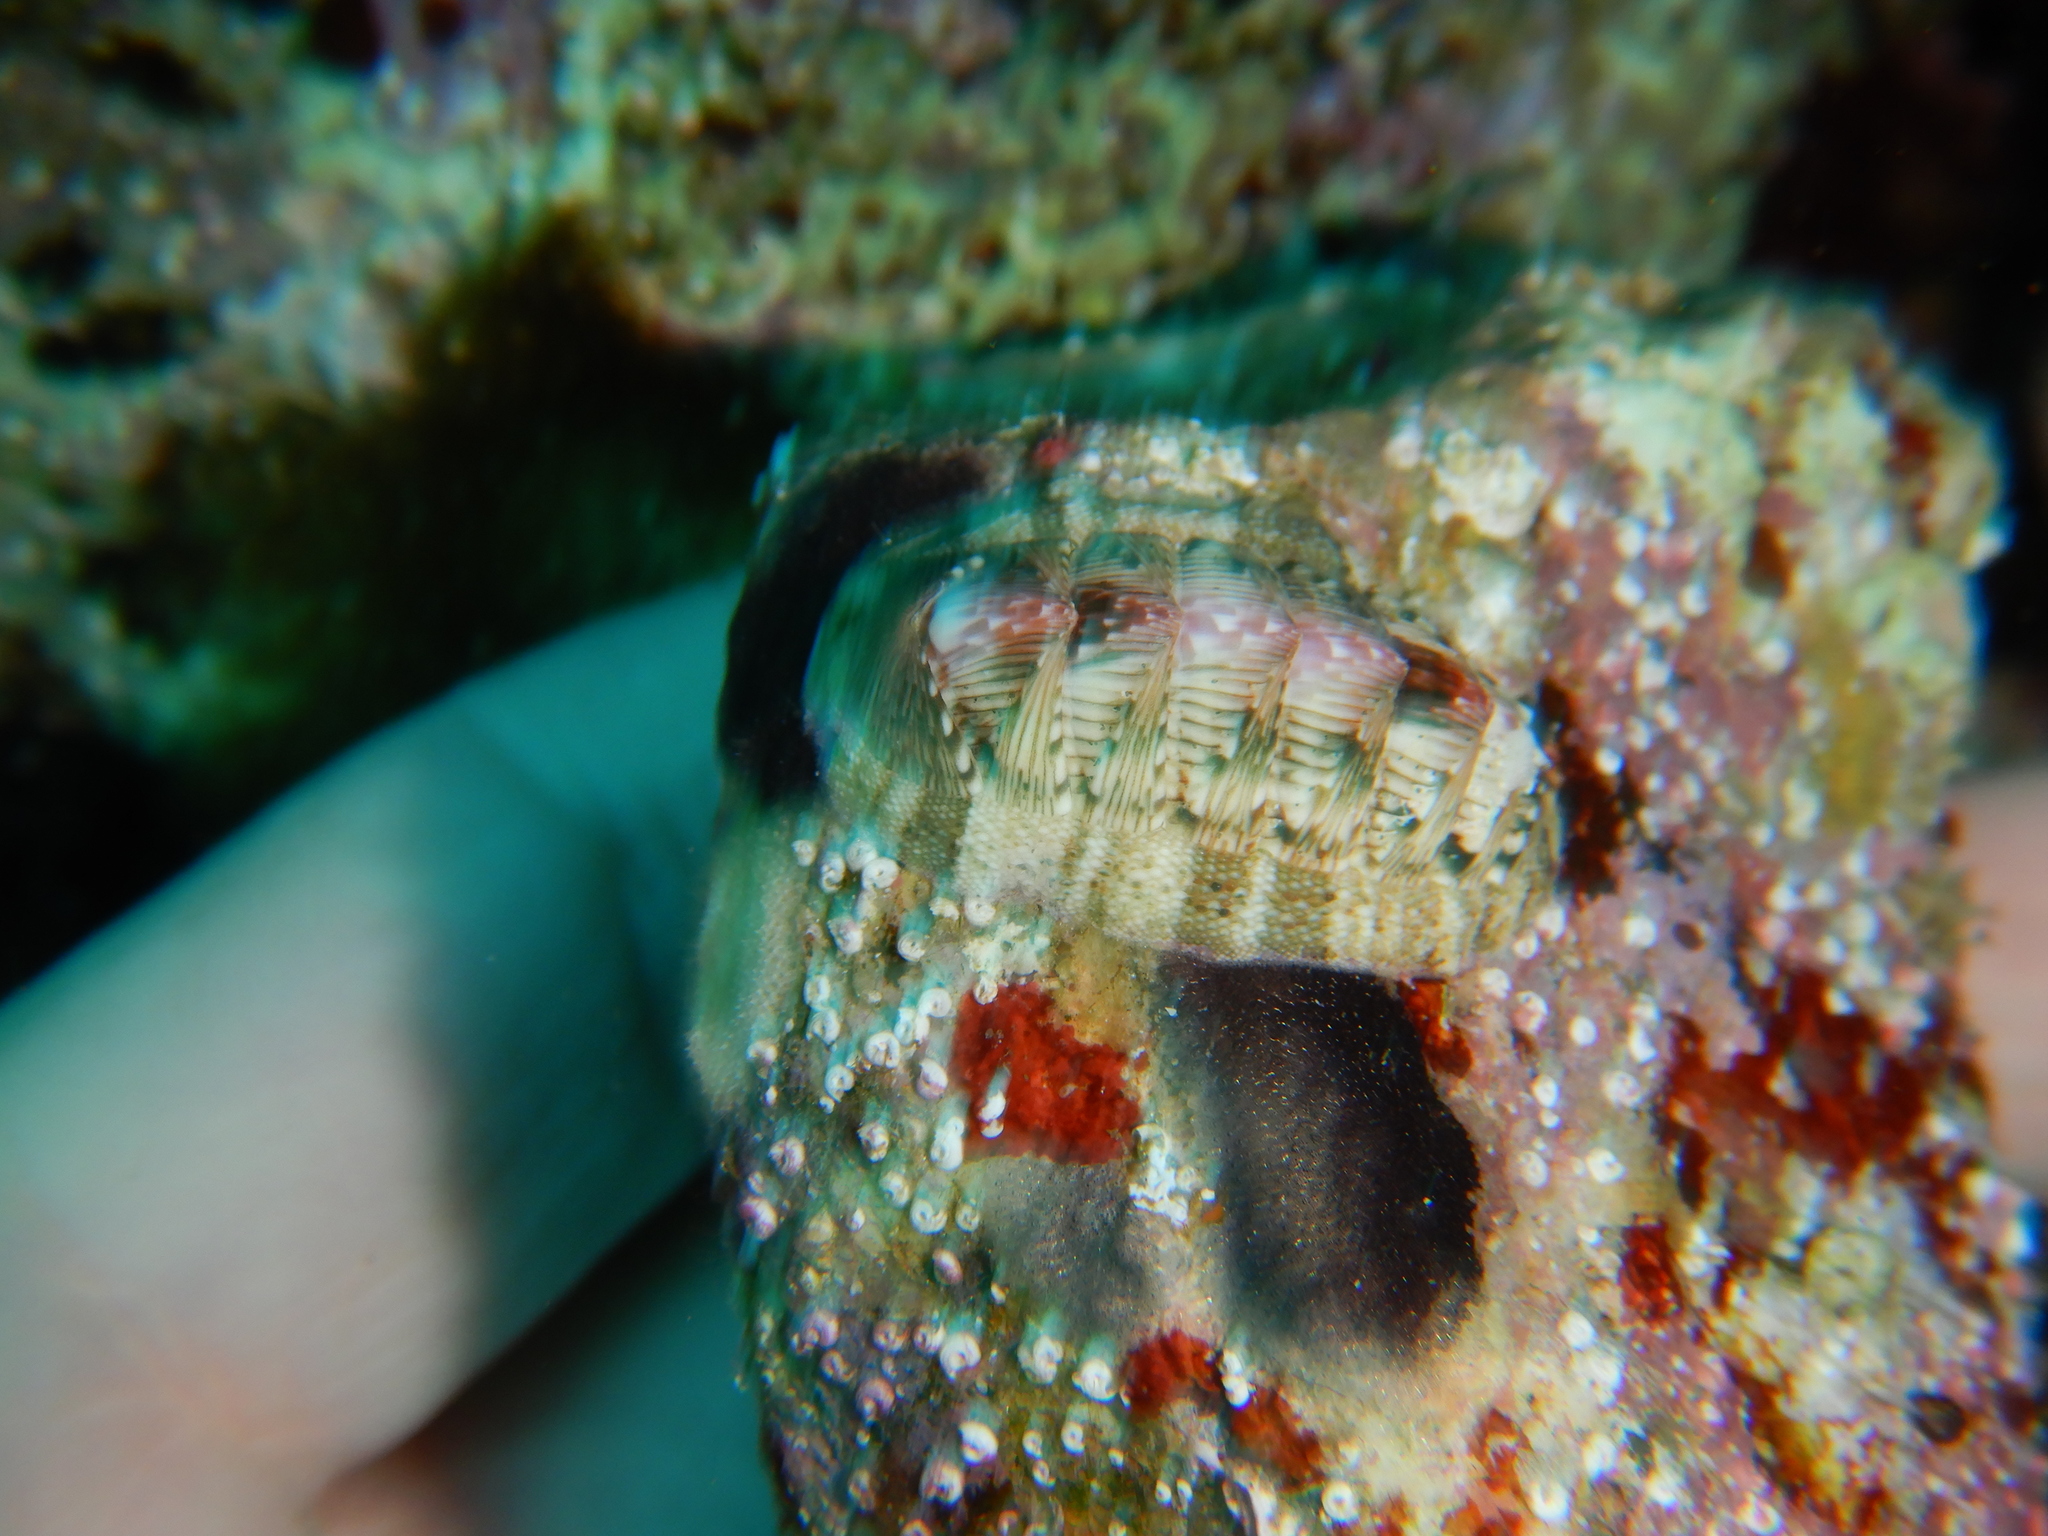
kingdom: Animalia
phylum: Mollusca
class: Polyplacophora
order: Chitonida
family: Chitonidae
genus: Rhyssoplax
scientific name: Rhyssoplax olivacea
